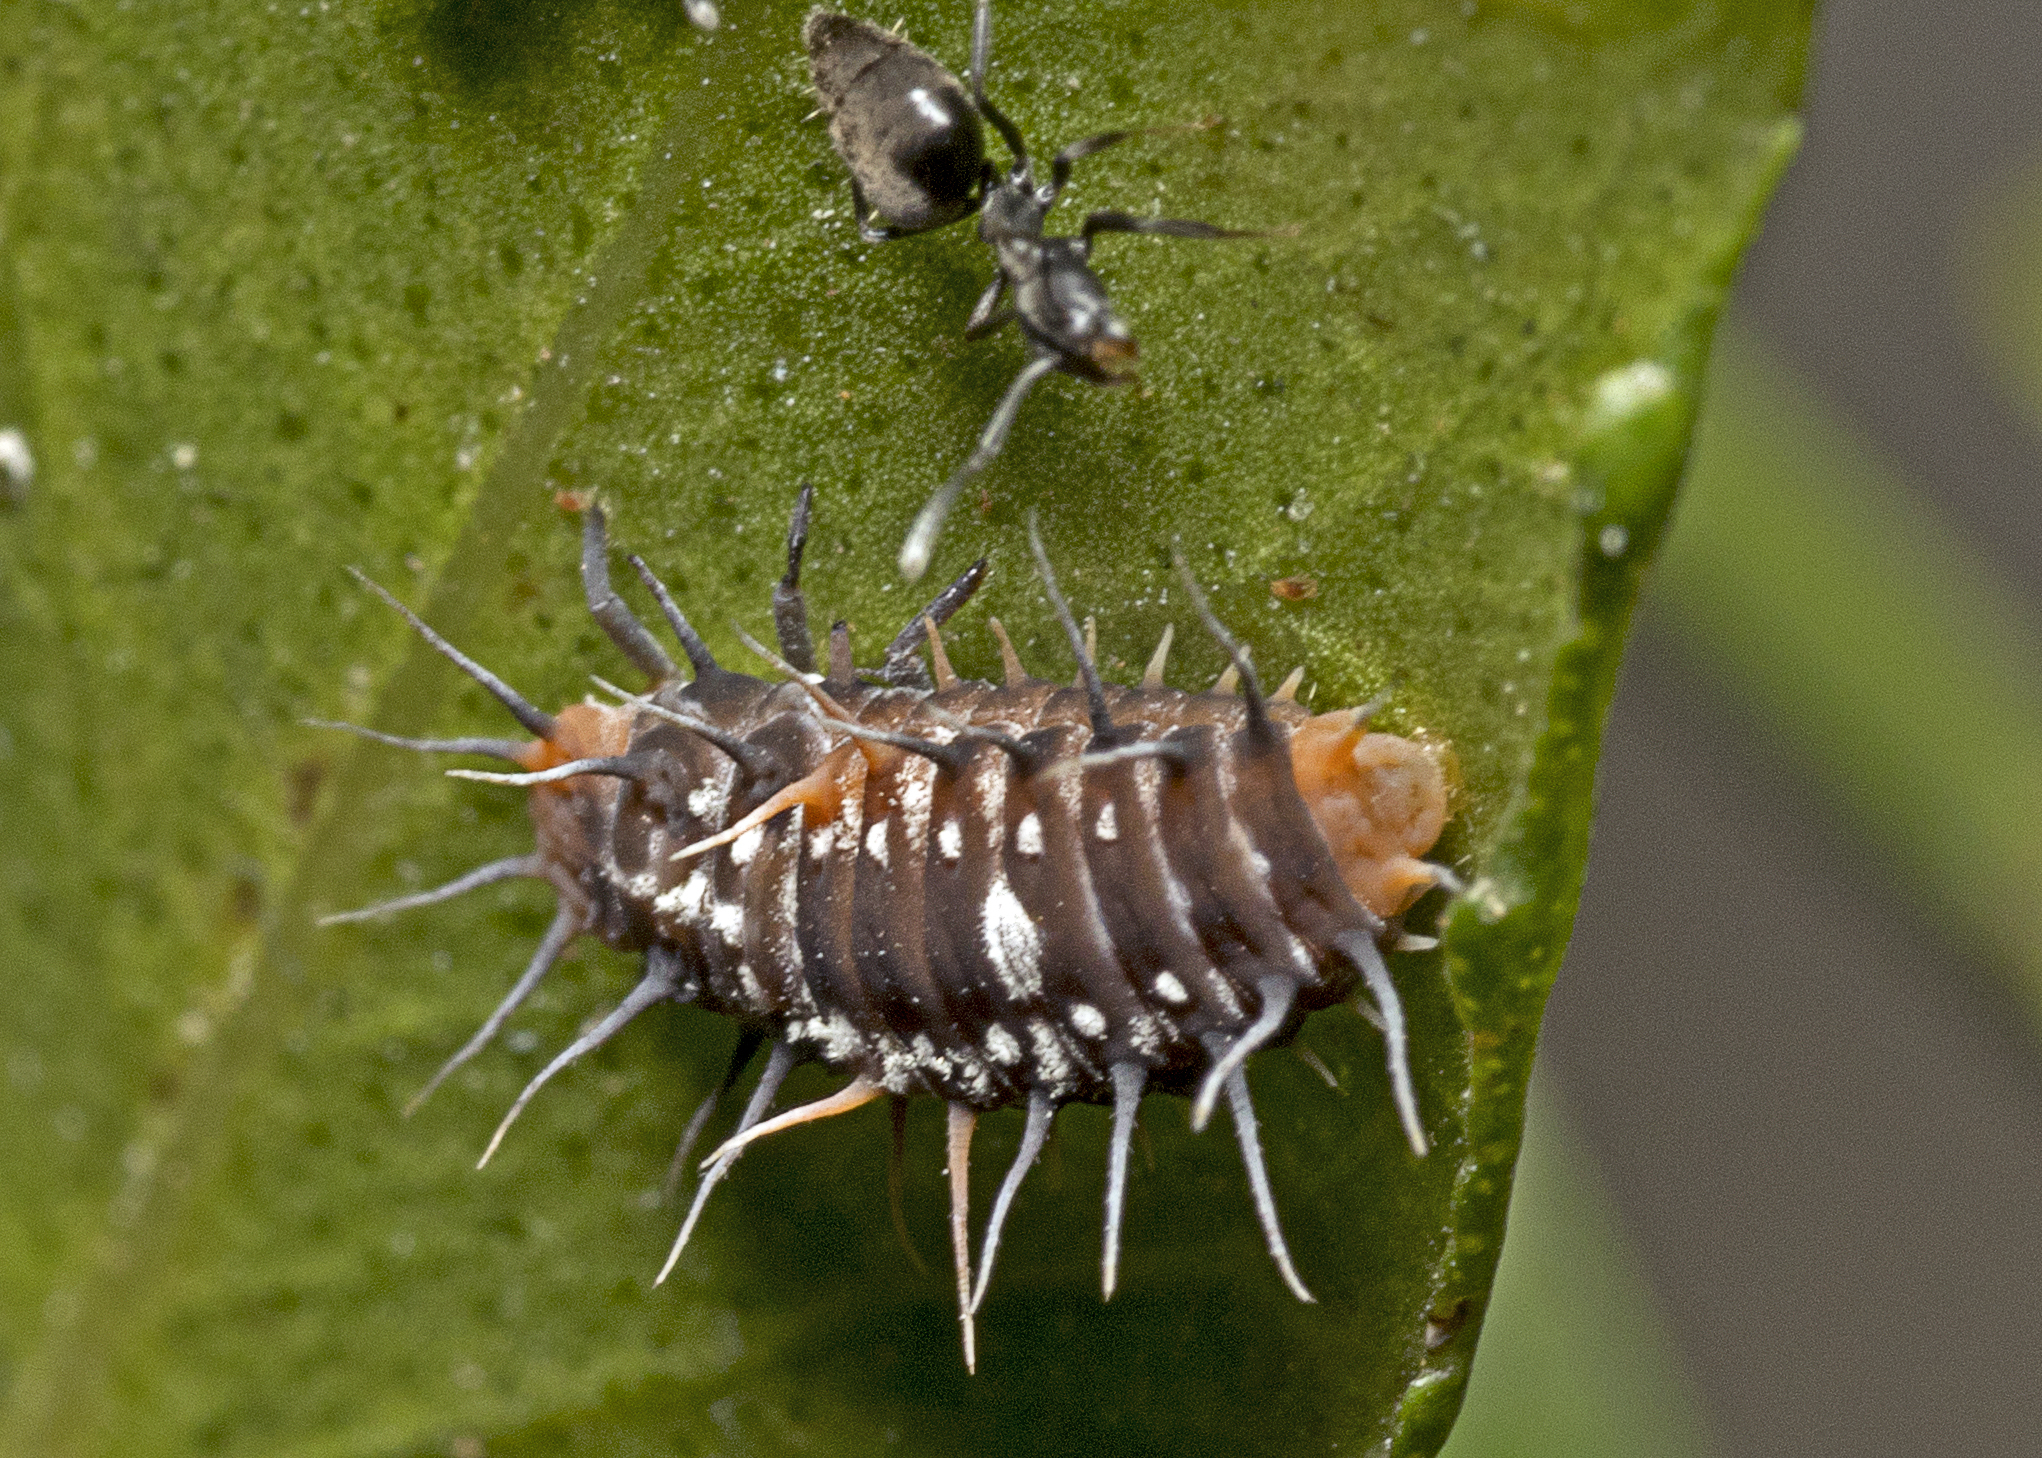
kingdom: Animalia
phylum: Arthropoda
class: Insecta
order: Coleoptera
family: Coccinellidae
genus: Scymnodes
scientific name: Scymnodes lividigaster
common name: Yellowshouldered lady beetle
